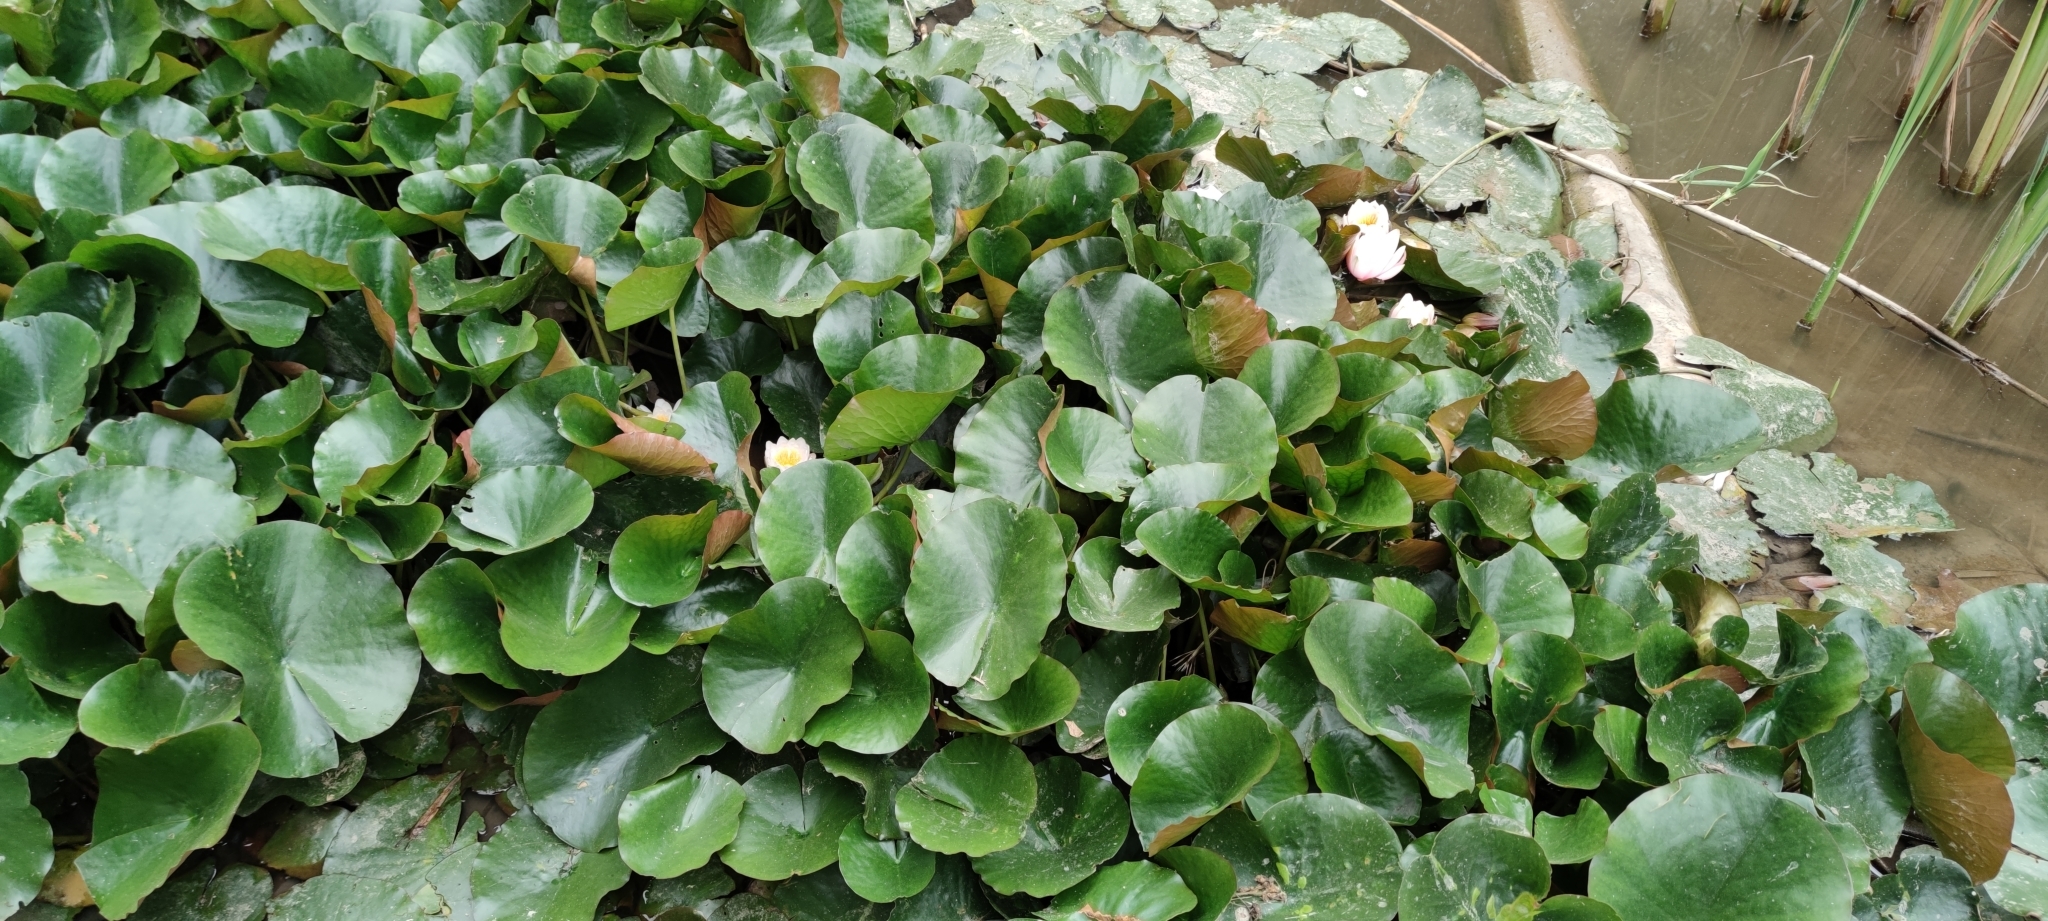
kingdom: Plantae
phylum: Tracheophyta
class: Magnoliopsida
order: Nymphaeales
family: Nymphaeaceae
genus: Nymphaea
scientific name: Nymphaea alba
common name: White water-lily
